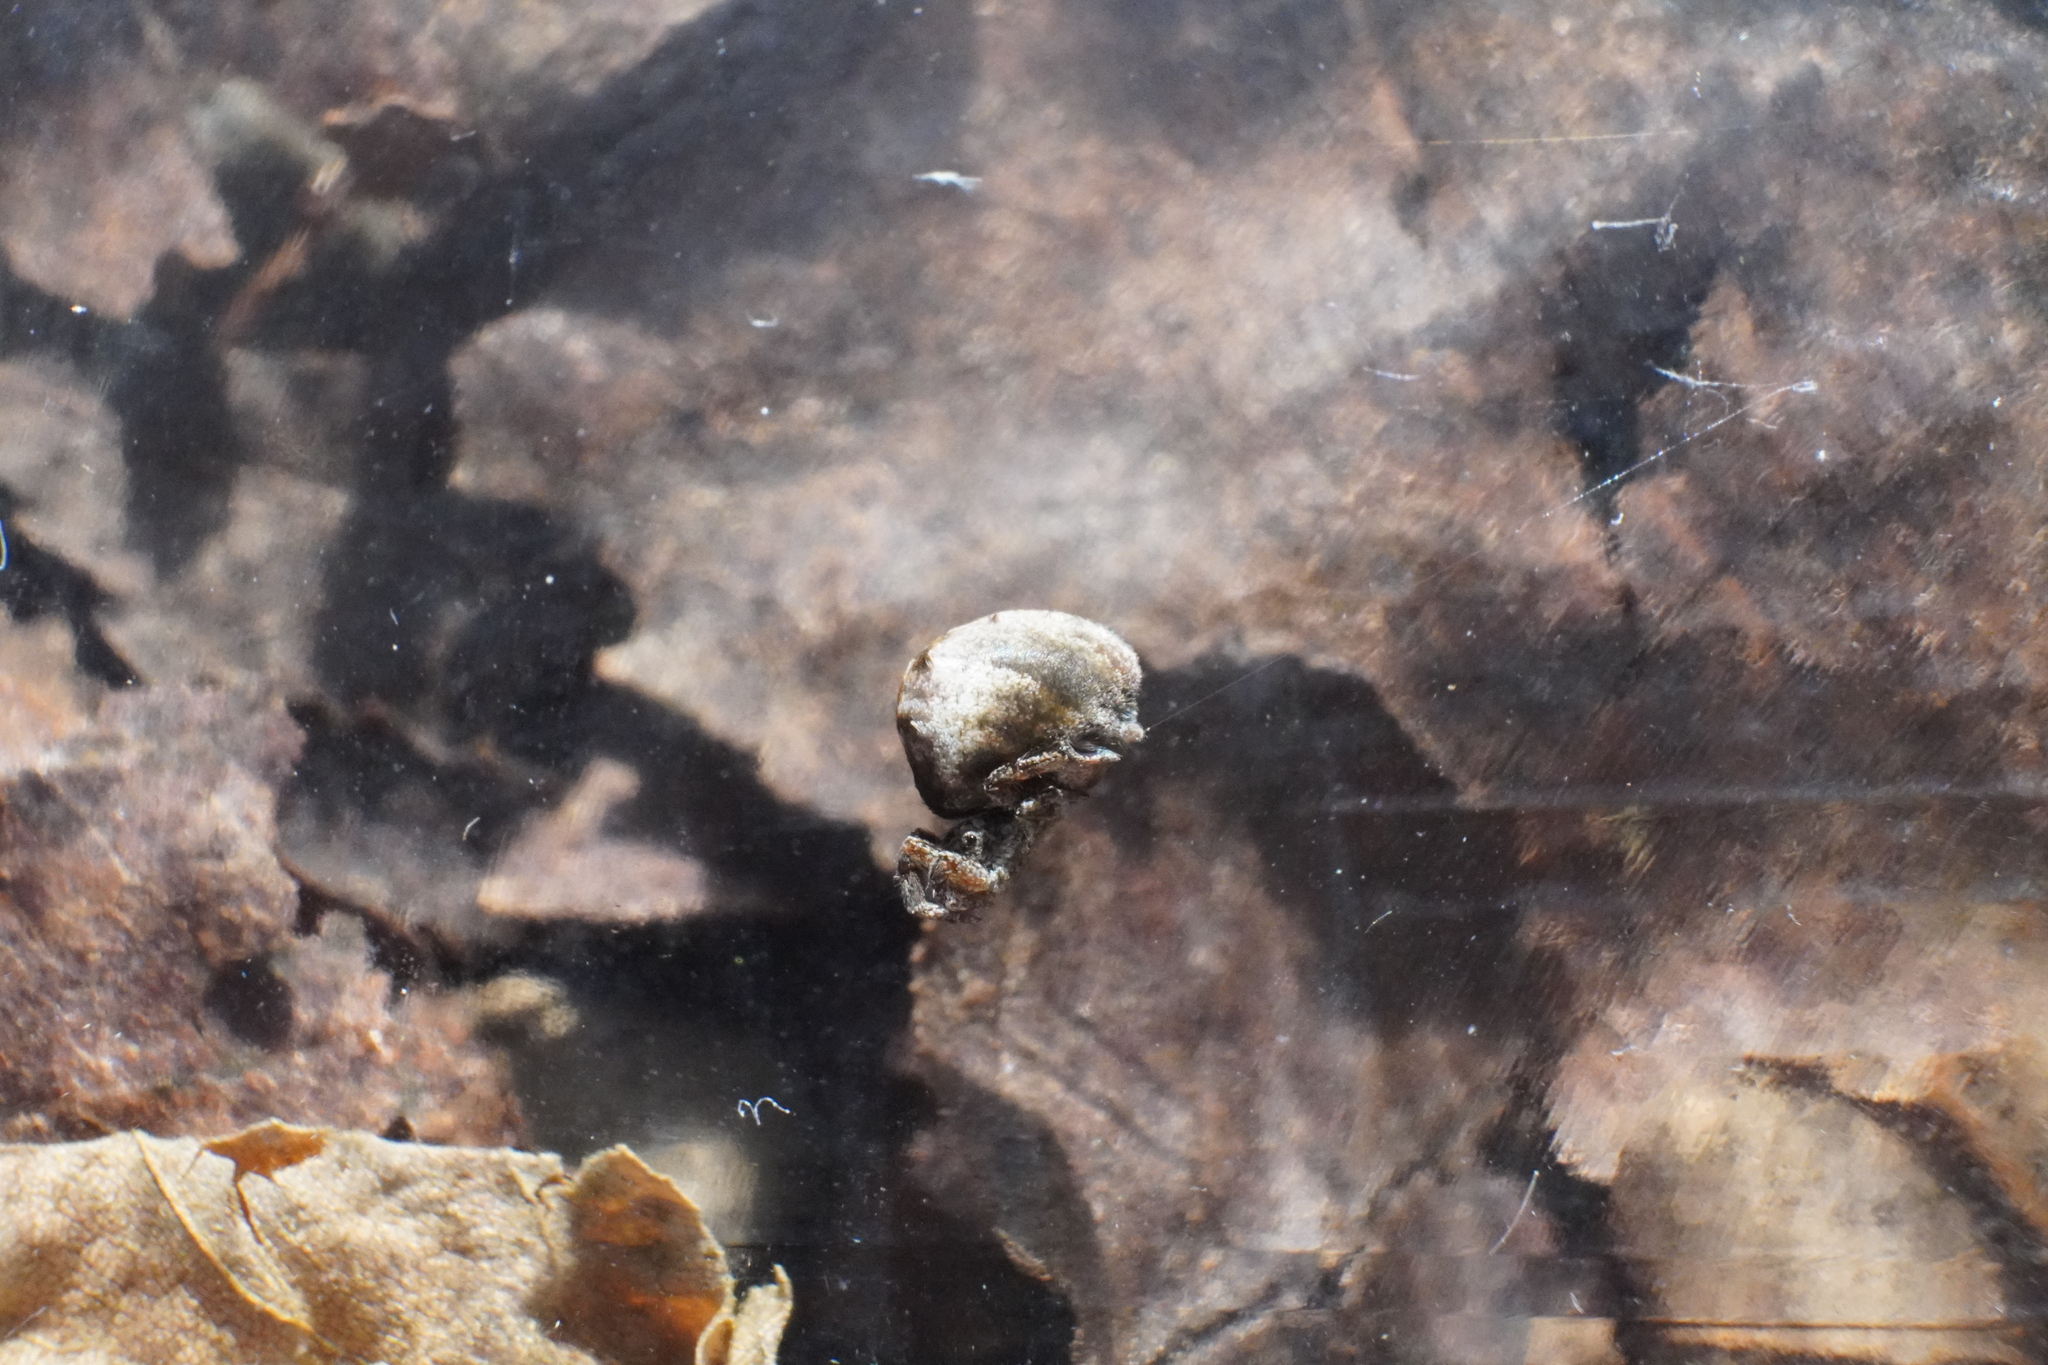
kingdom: Animalia
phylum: Arthropoda
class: Arachnida
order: Araneae
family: Uloboridae
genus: Hyptiotes
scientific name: Hyptiotes cavatus
